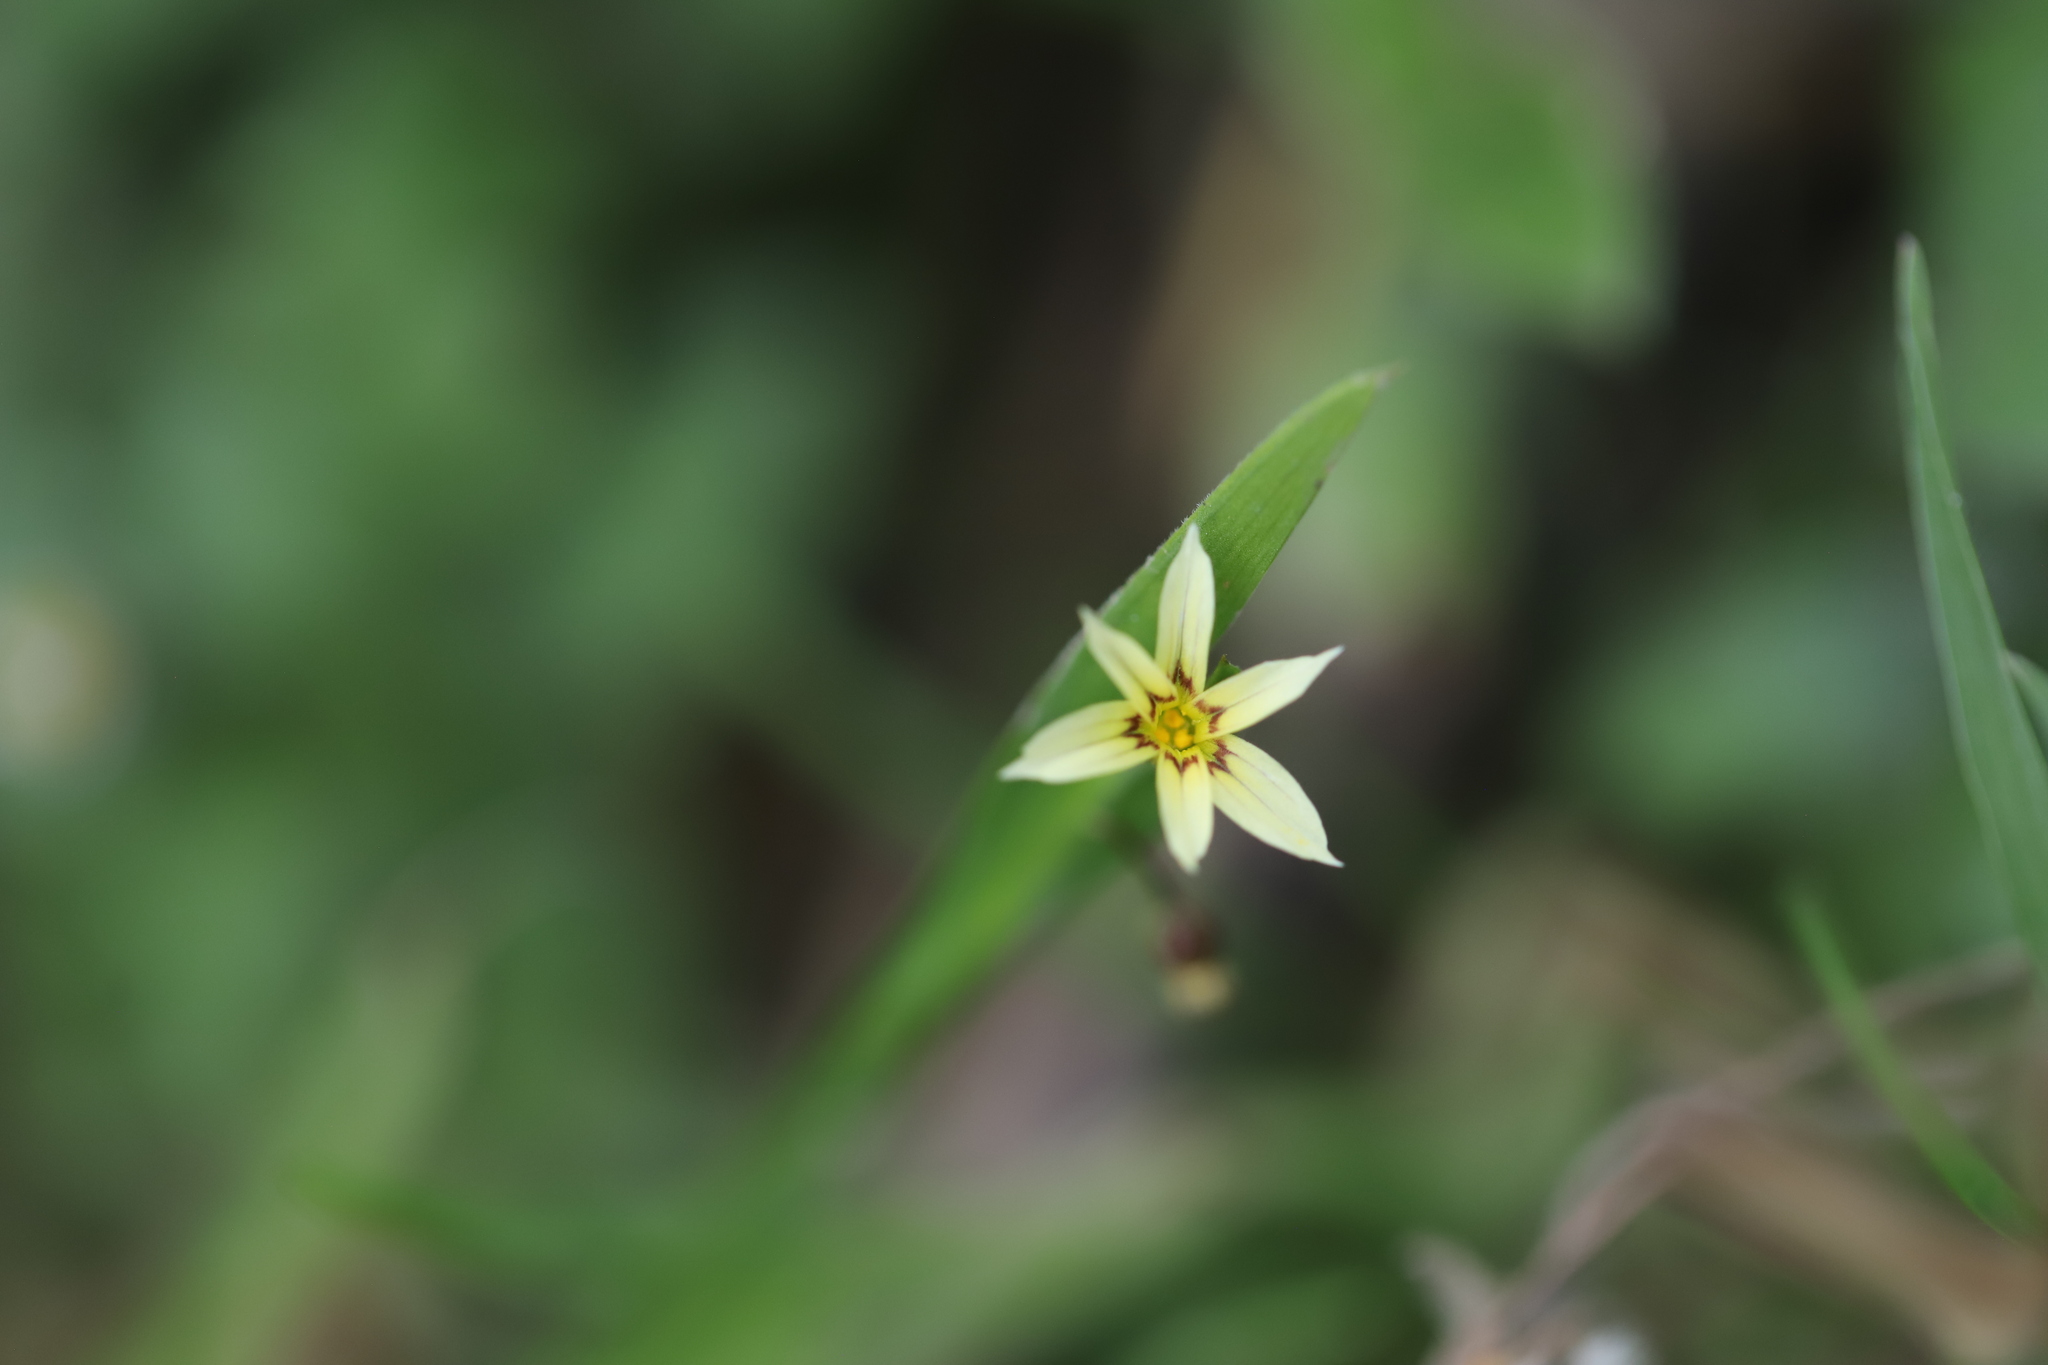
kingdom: Plantae
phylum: Tracheophyta
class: Liliopsida
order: Asparagales
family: Iridaceae
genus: Sisyrinchium
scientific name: Sisyrinchium micranthum
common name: Bermuda pigroot
